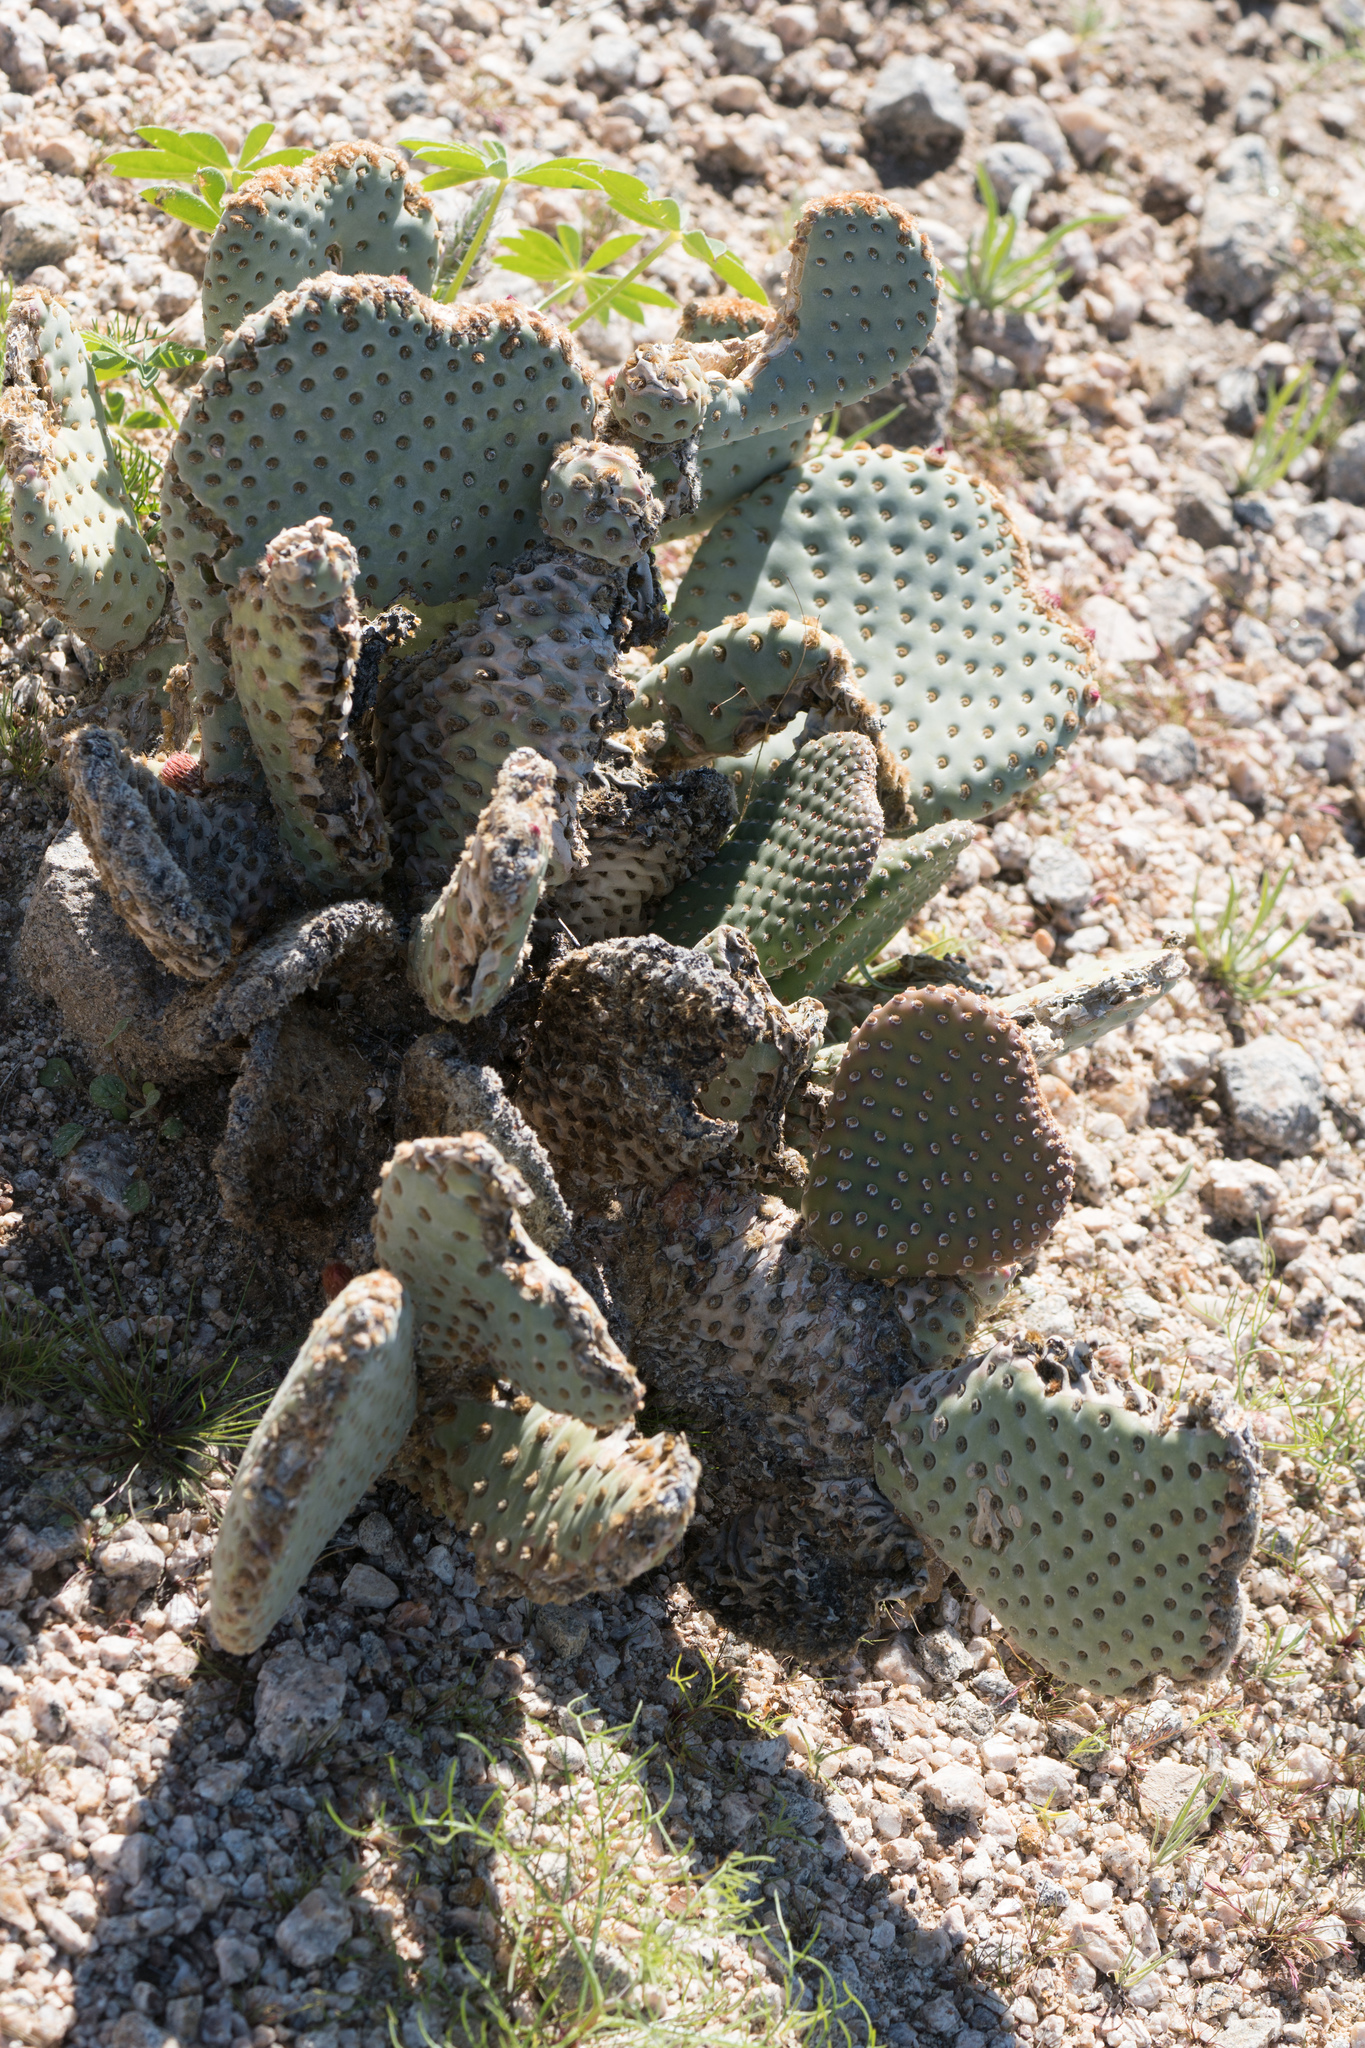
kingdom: Plantae
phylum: Tracheophyta
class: Magnoliopsida
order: Caryophyllales
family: Cactaceae
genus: Opuntia
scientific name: Opuntia basilaris
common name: Beavertail prickly-pear
